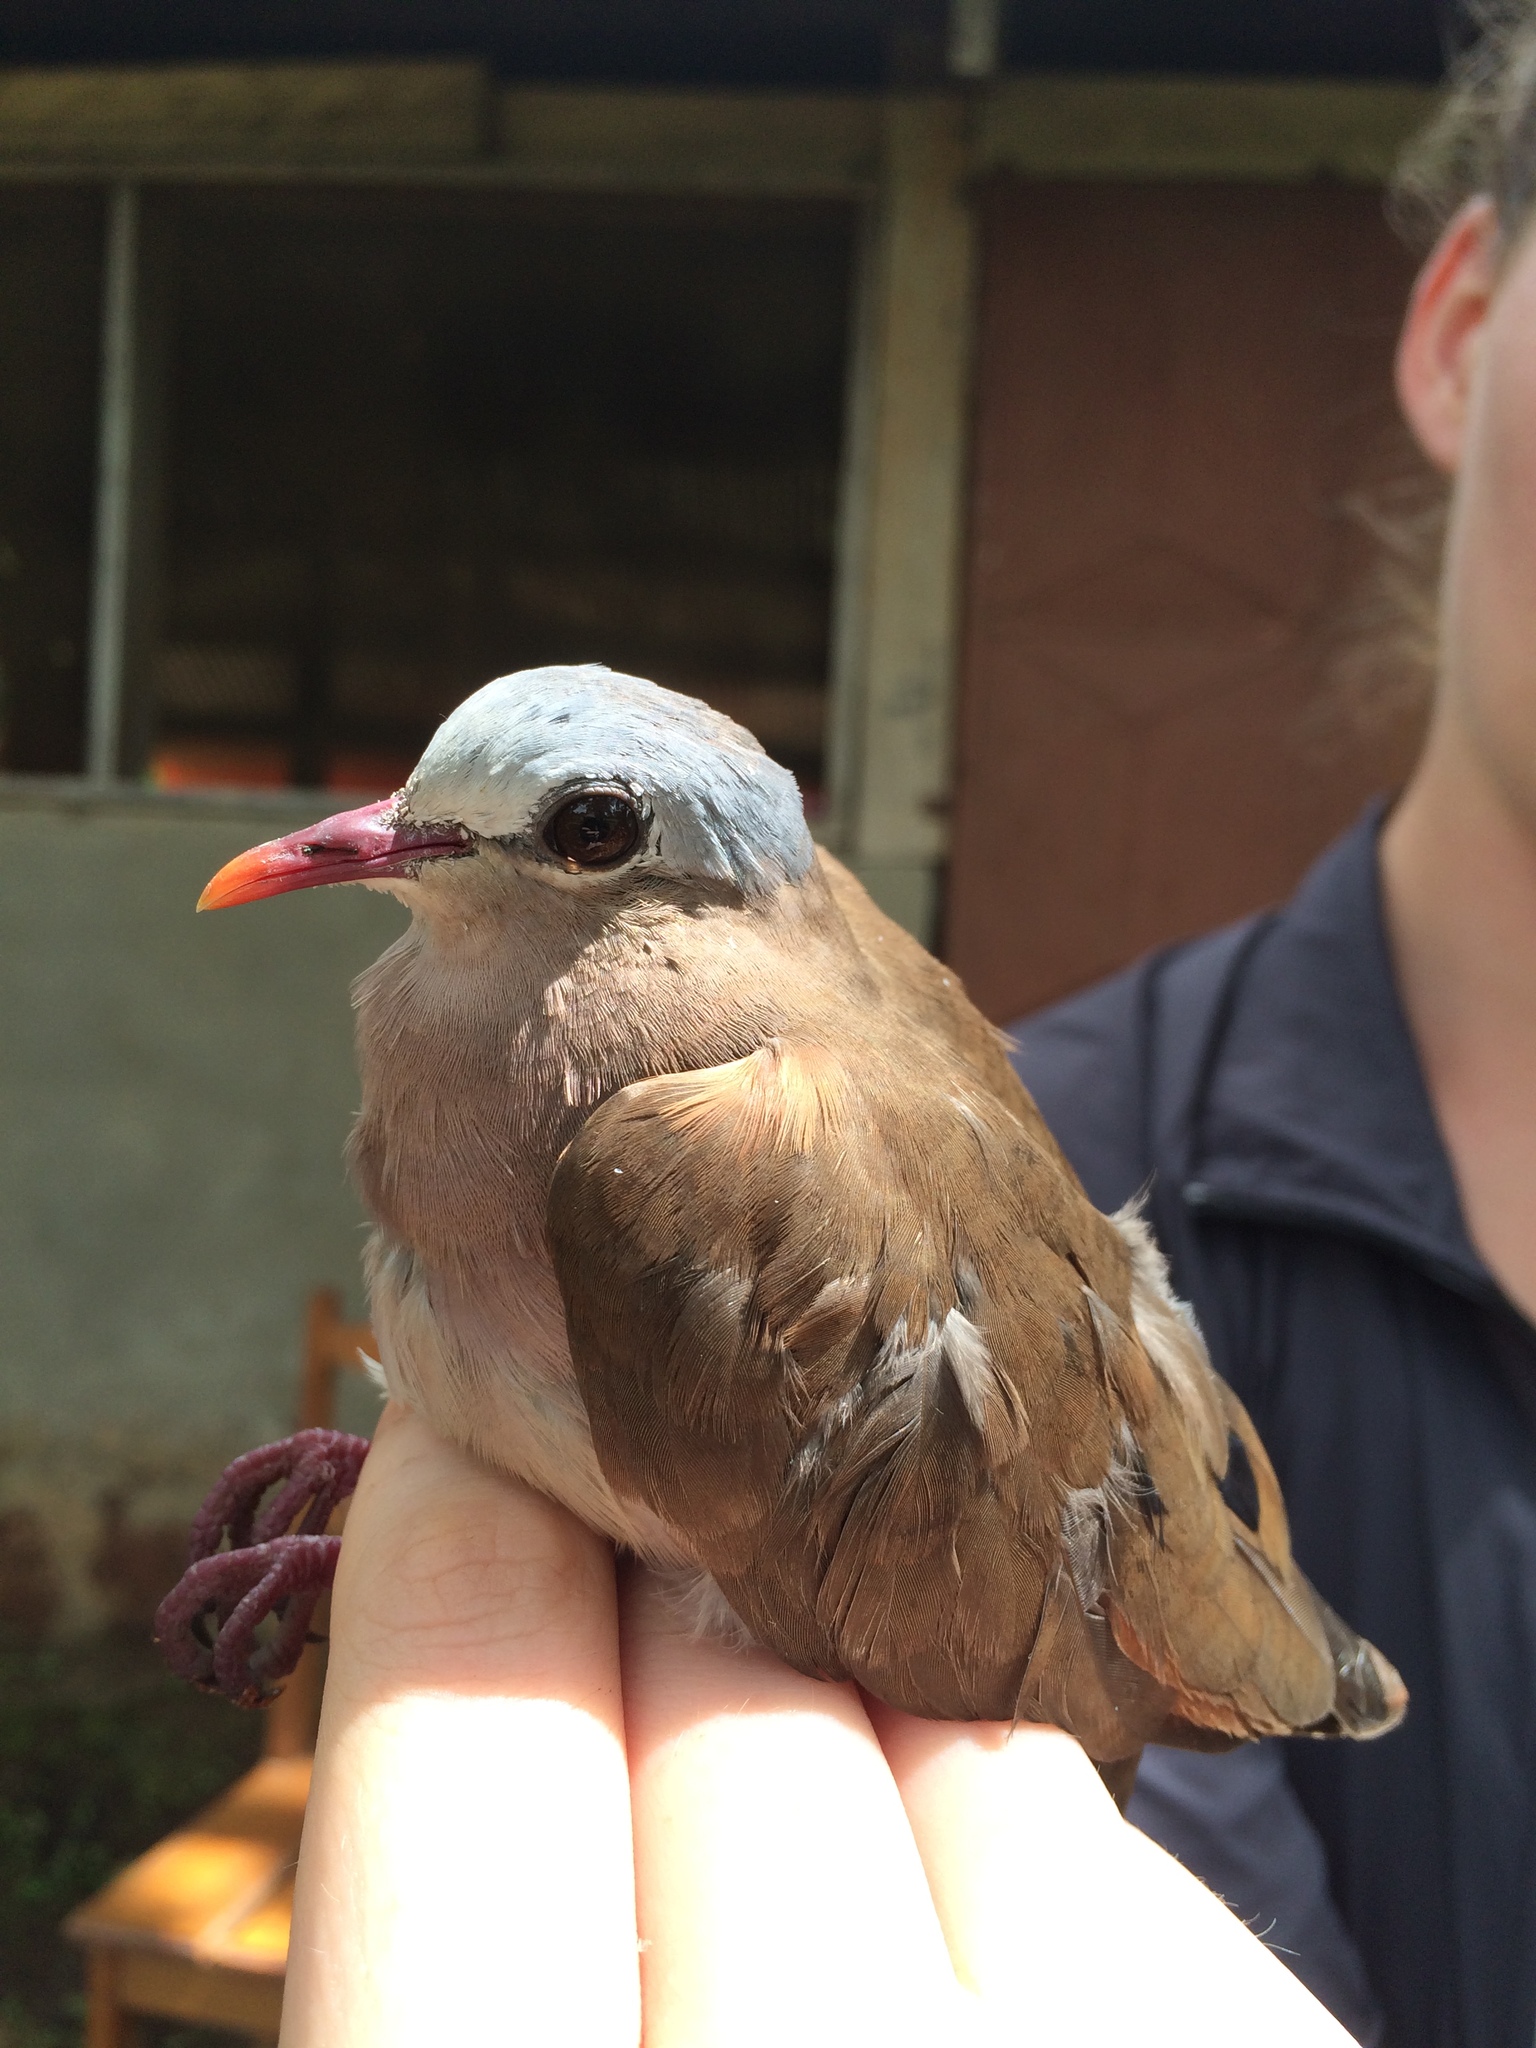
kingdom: Animalia
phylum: Chordata
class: Aves
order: Columbiformes
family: Columbidae
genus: Turtur
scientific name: Turtur afer
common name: Blue-spotted wood dove
